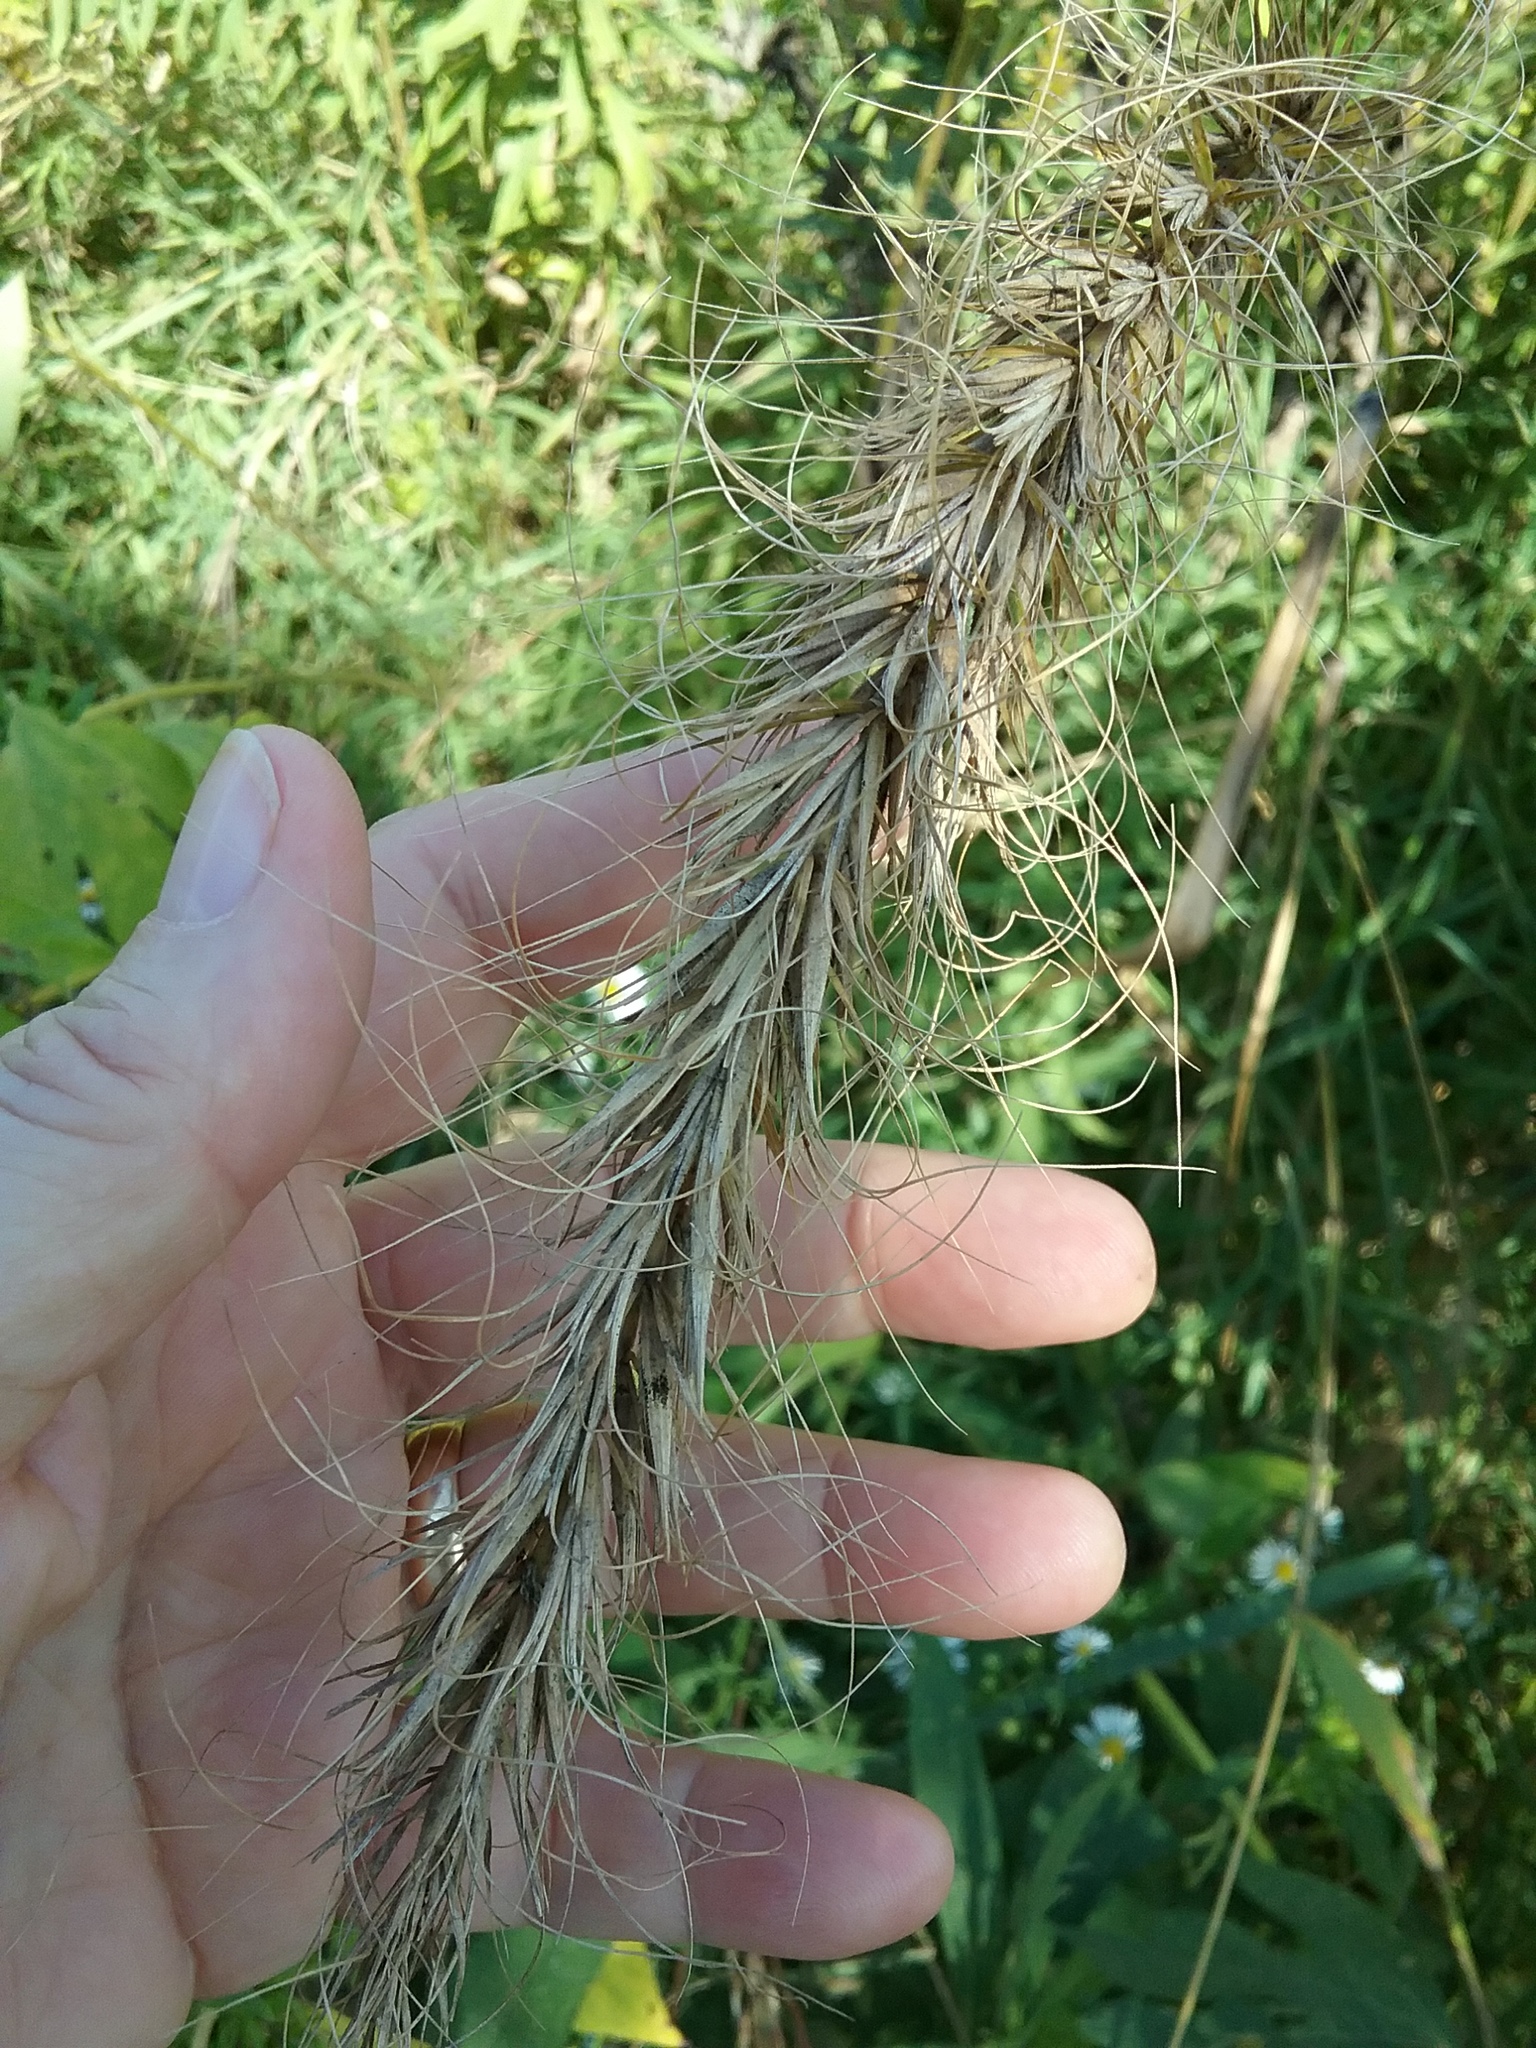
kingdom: Plantae
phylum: Tracheophyta
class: Liliopsida
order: Poales
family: Poaceae
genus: Elymus
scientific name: Elymus canadensis
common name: Canada wild rye
